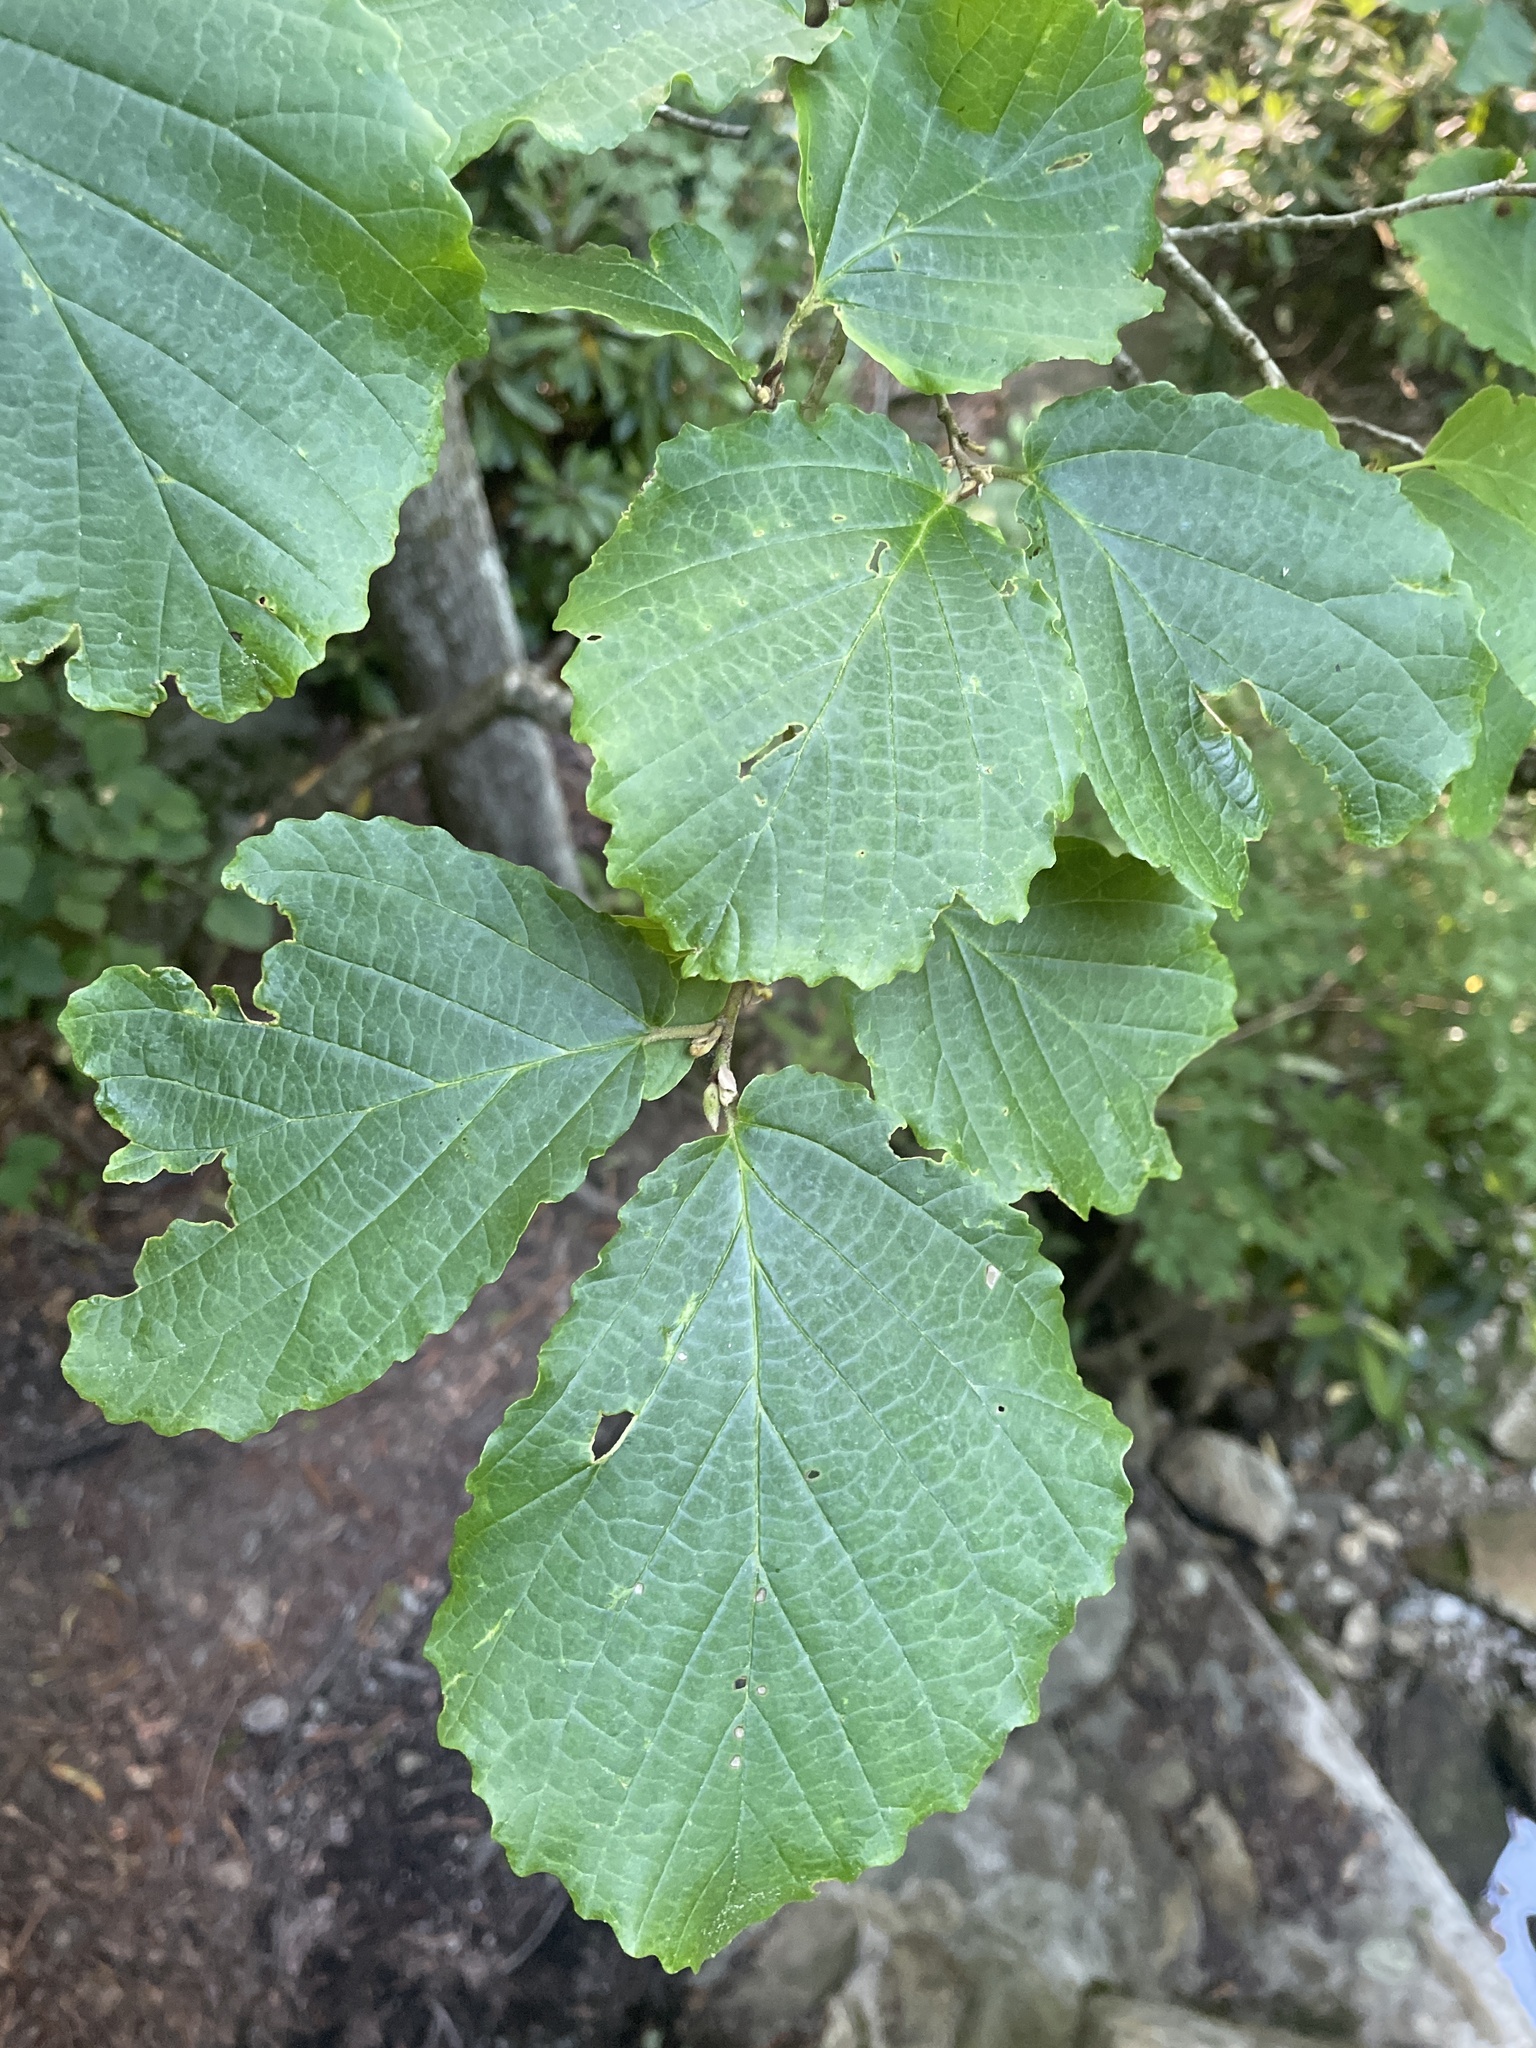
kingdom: Plantae
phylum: Tracheophyta
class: Magnoliopsida
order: Saxifragales
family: Hamamelidaceae
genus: Hamamelis
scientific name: Hamamelis virginiana
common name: Witch-hazel
